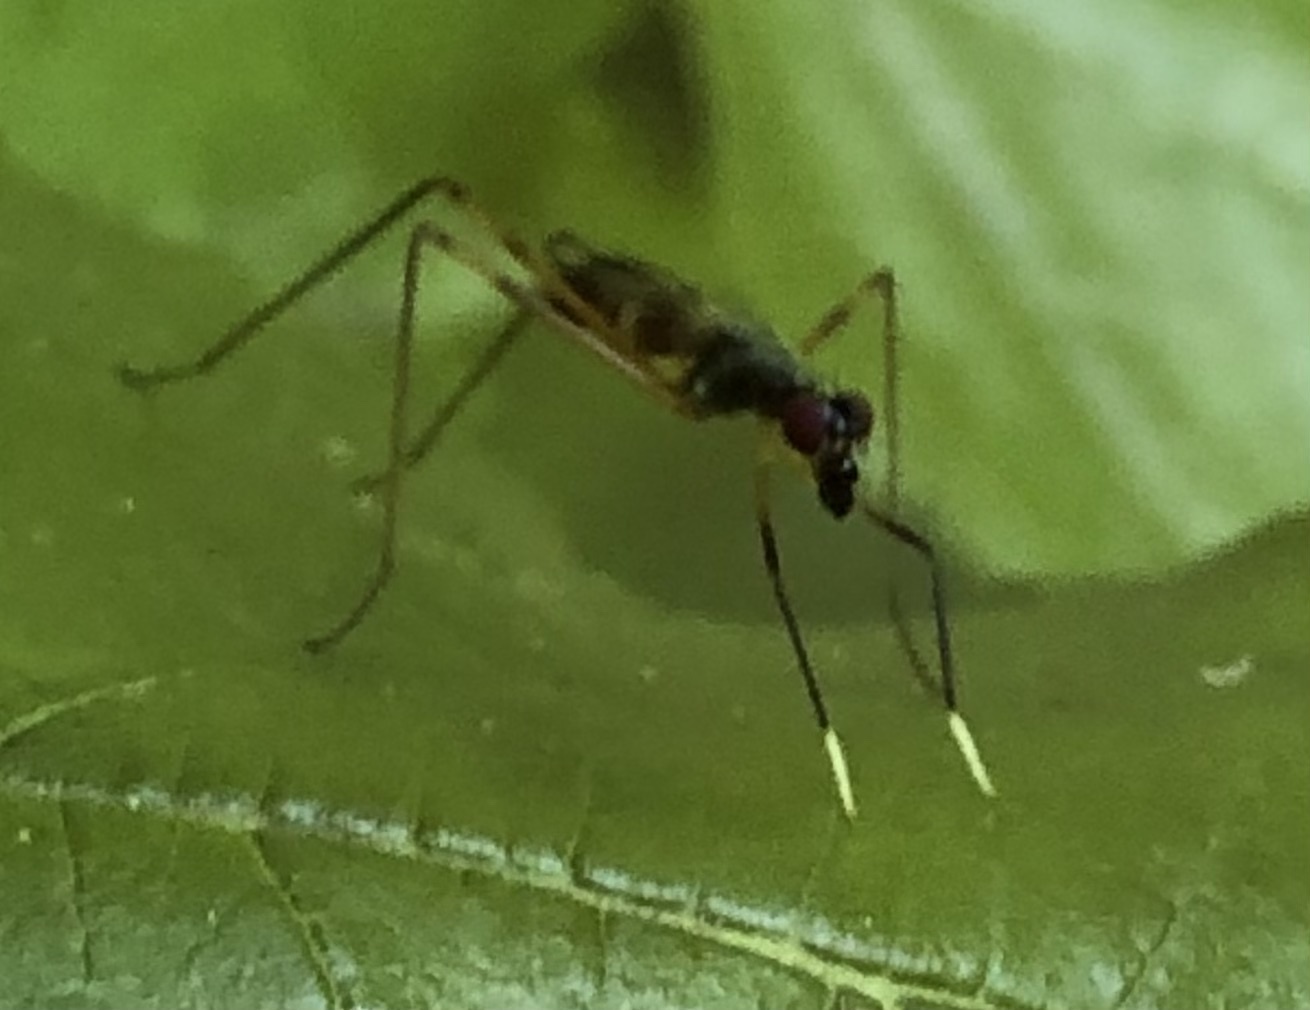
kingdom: Animalia
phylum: Arthropoda
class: Insecta
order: Diptera
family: Micropezidae
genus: Rainieria
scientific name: Rainieria antennaepes
